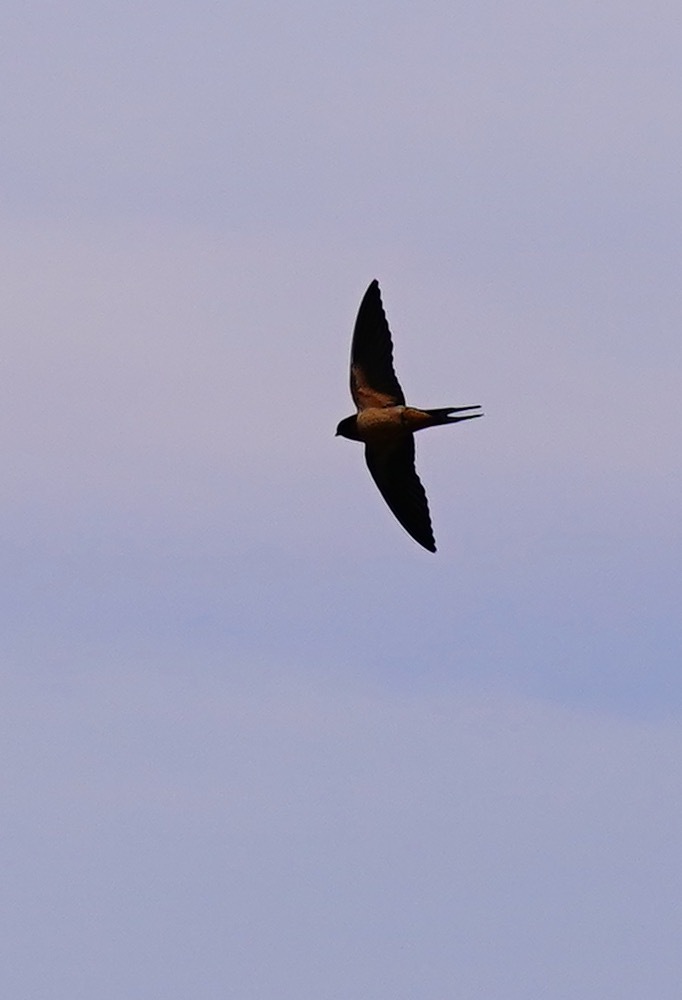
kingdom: Animalia
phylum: Chordata
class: Aves
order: Passeriformes
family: Hirundinidae
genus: Hirundo
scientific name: Hirundo rustica
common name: Barn swallow
